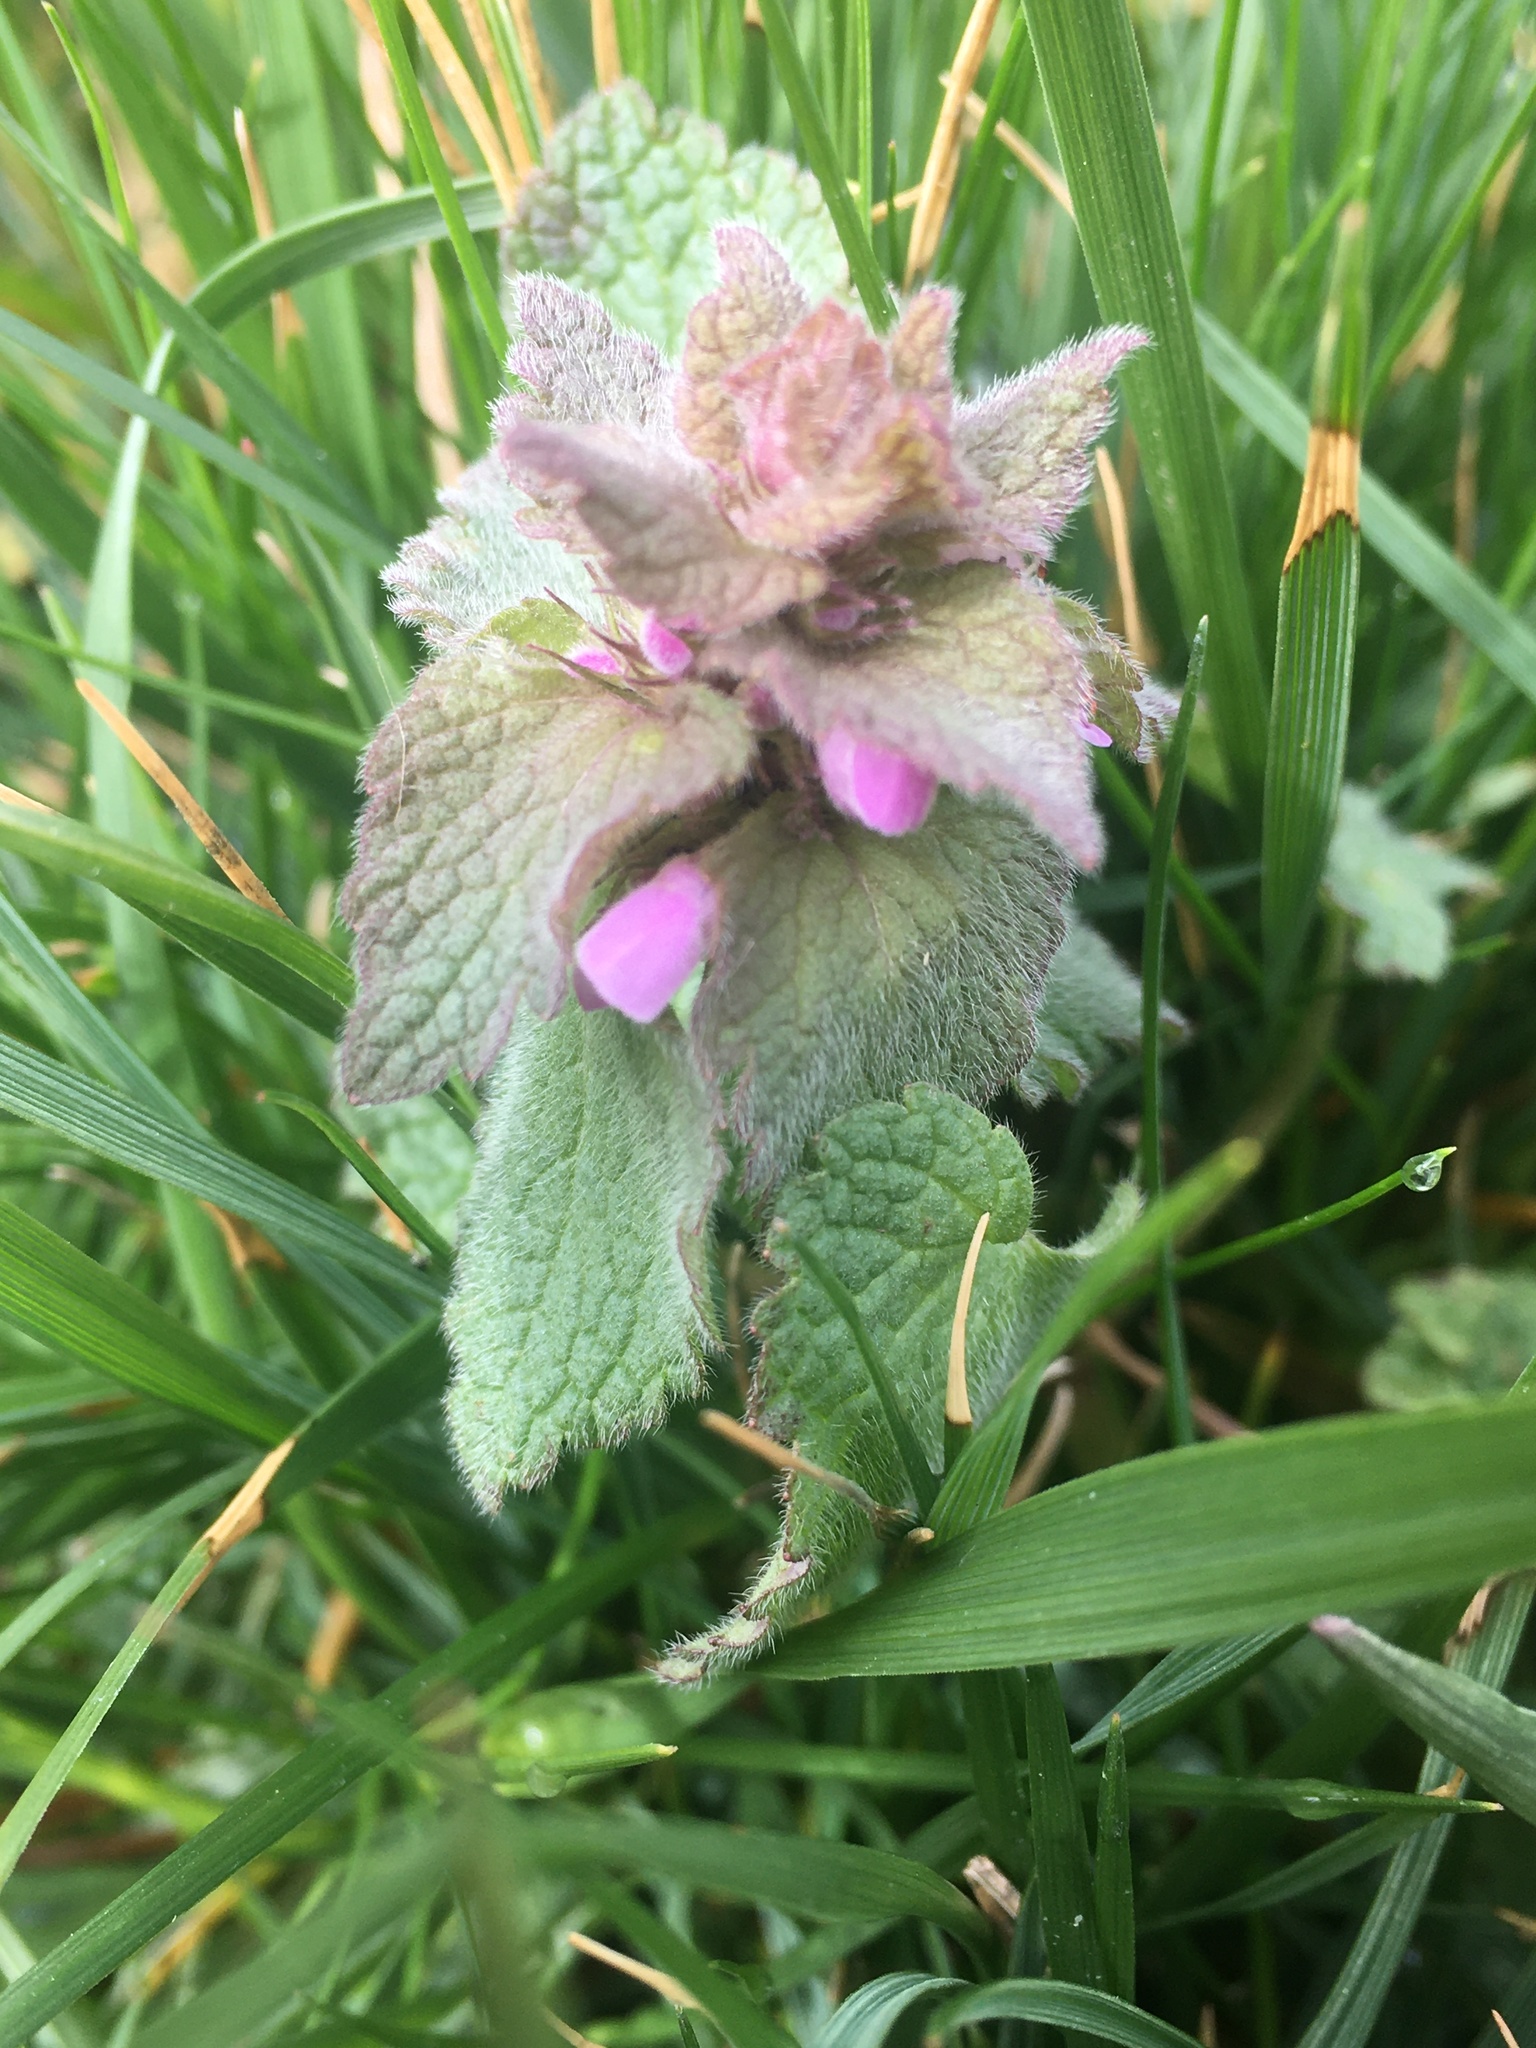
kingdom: Plantae
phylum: Tracheophyta
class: Magnoliopsida
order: Lamiales
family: Lamiaceae
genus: Lamium
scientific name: Lamium purpureum
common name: Red dead-nettle
